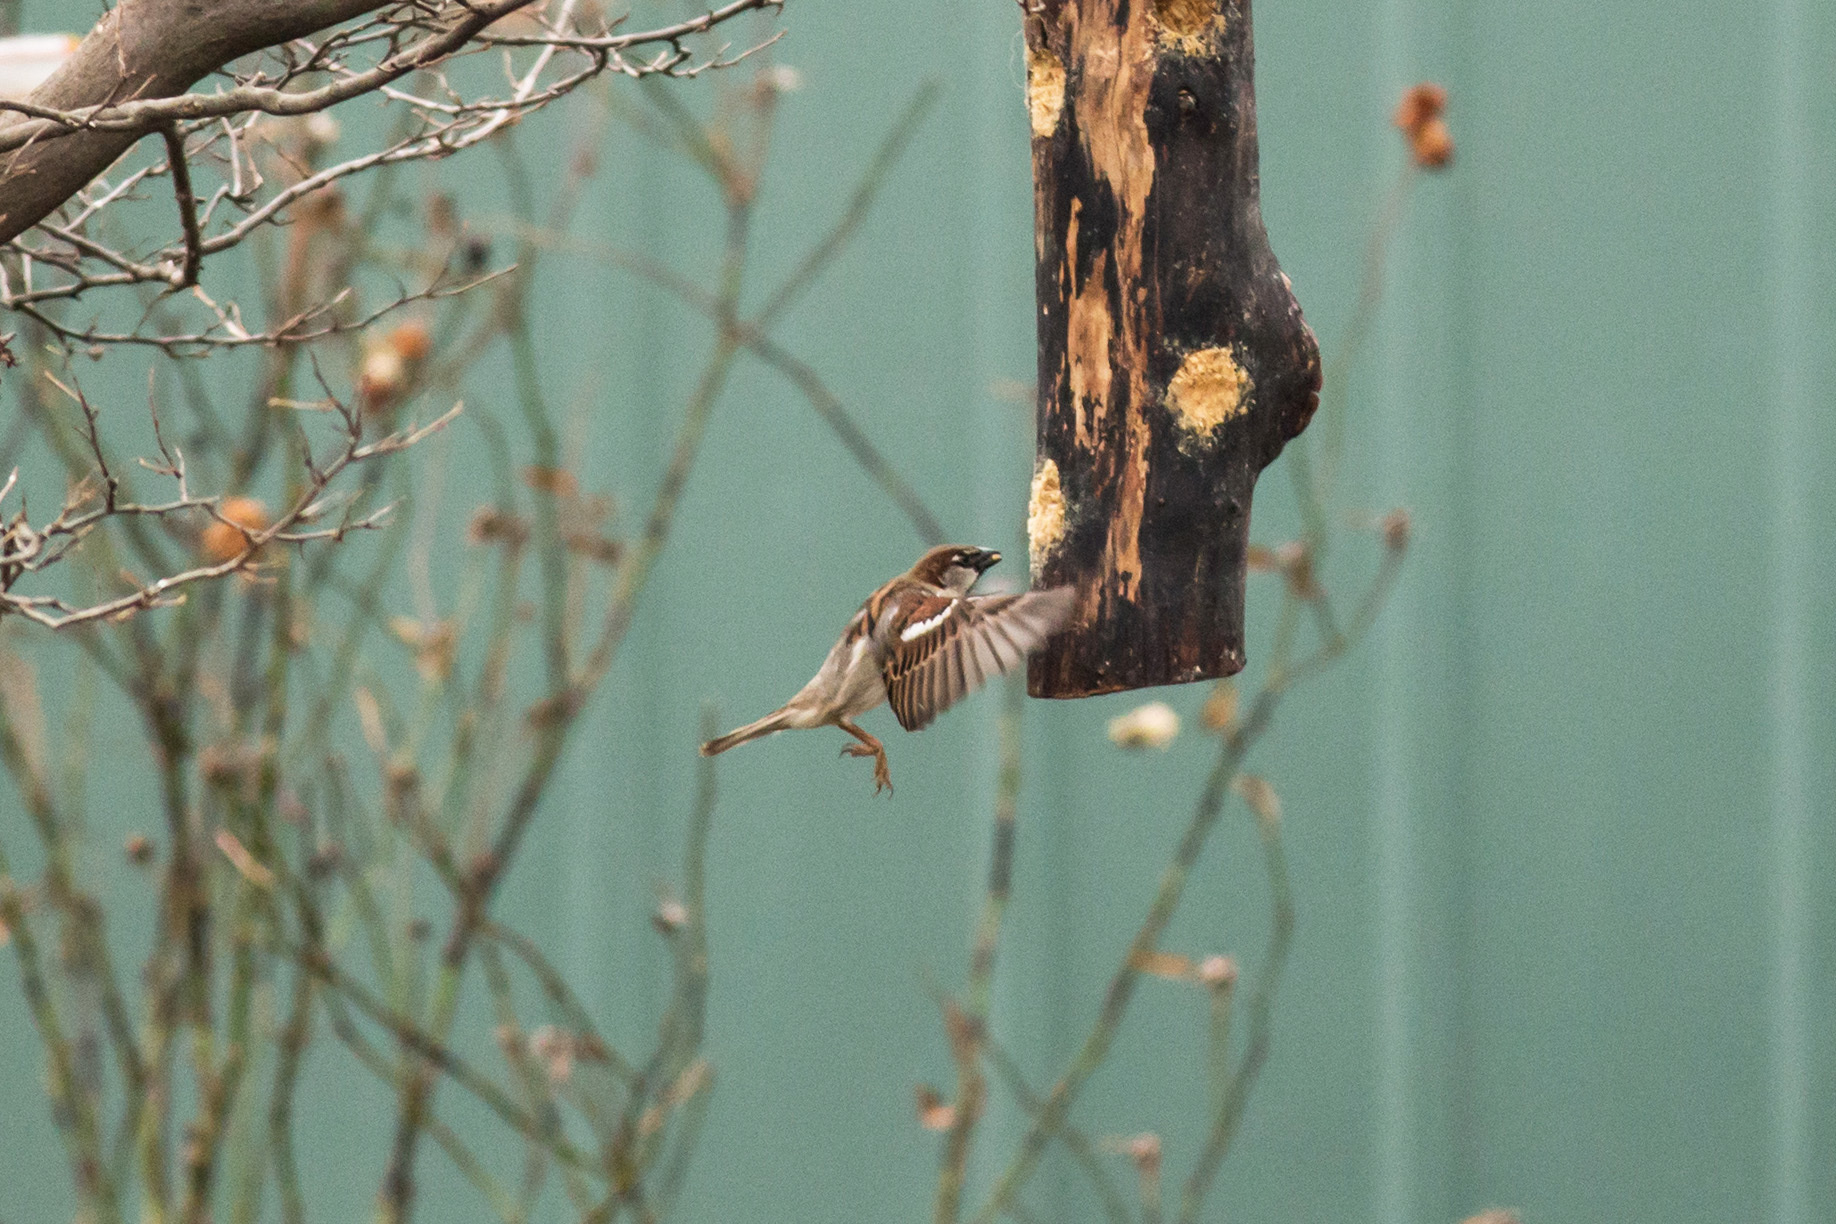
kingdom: Animalia
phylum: Chordata
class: Aves
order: Passeriformes
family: Passeridae
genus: Passer
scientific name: Passer domesticus
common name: House sparrow
